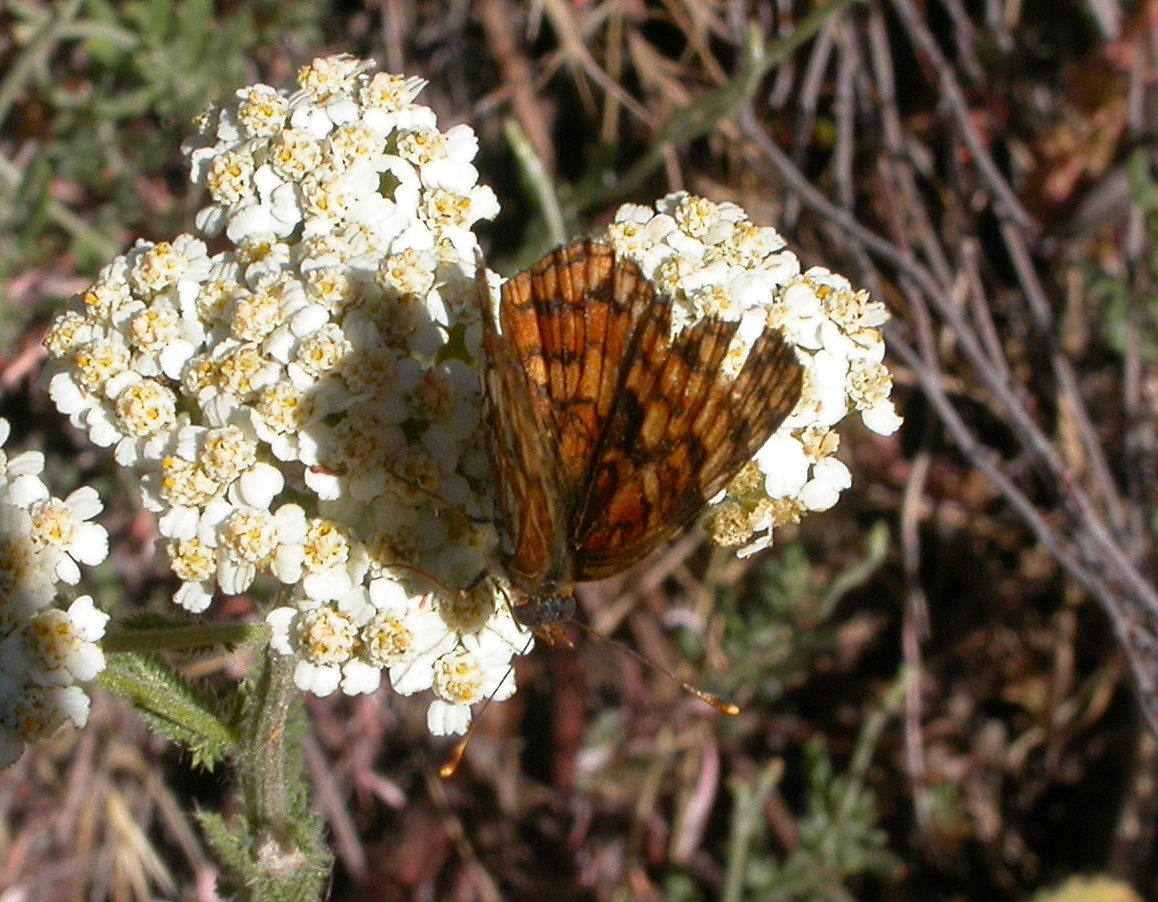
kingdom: Animalia
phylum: Arthropoda
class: Insecta
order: Lepidoptera
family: Nymphalidae
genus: Chlosyne
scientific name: Chlosyne gabbii
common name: Gabb's checkerspot
